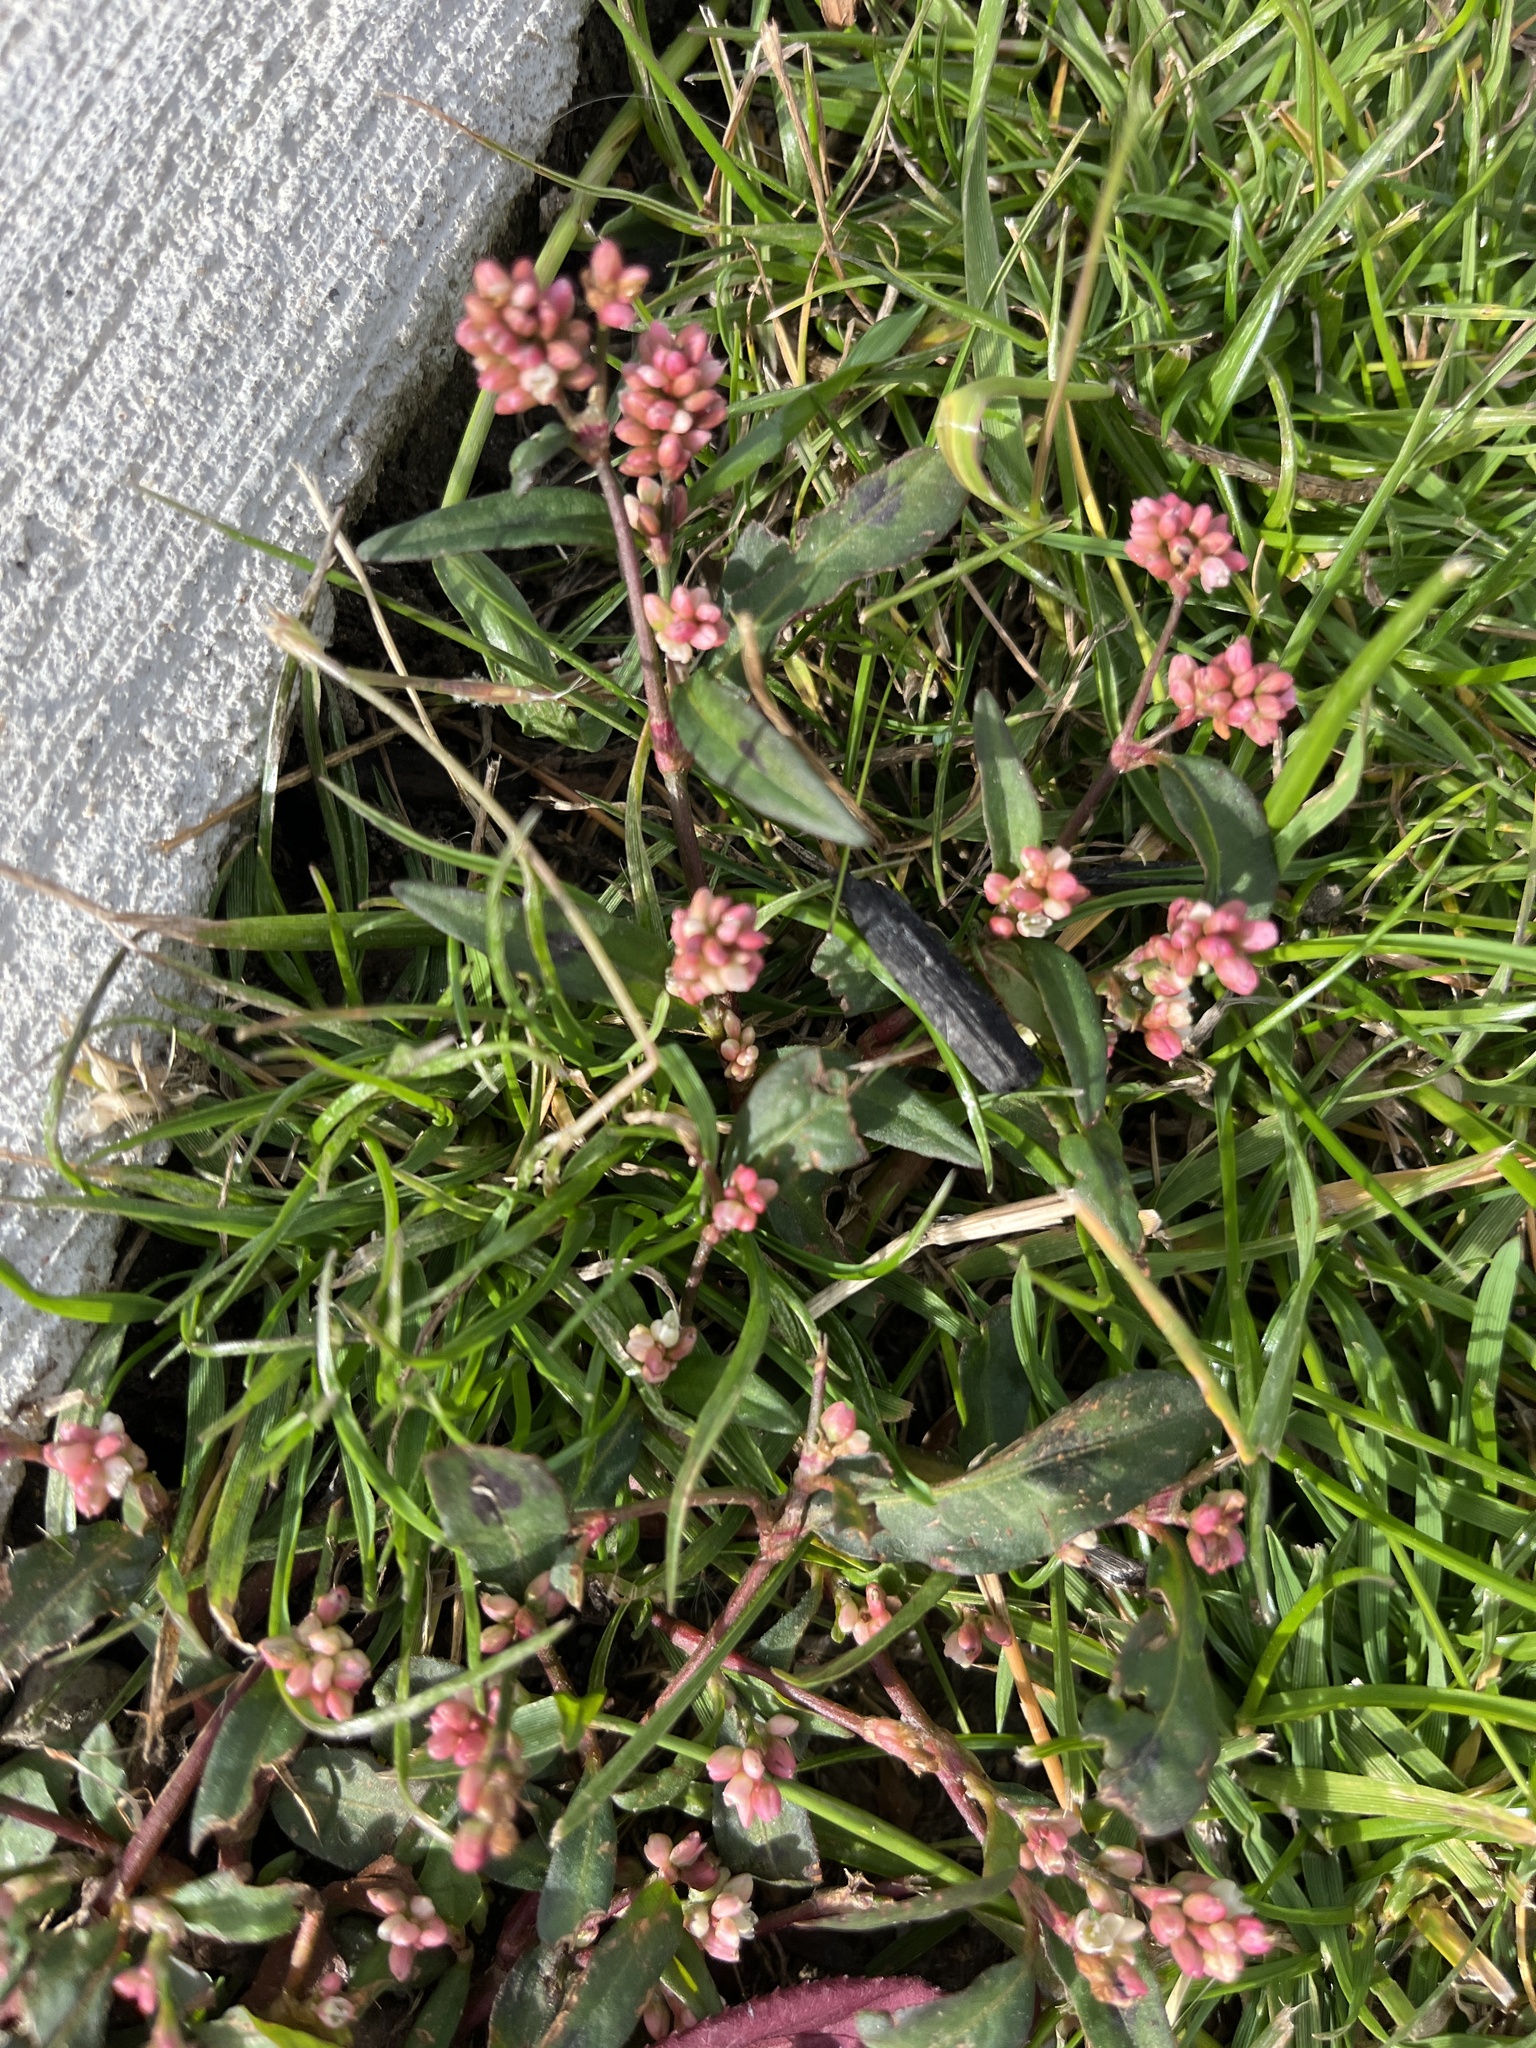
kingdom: Plantae
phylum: Tracheophyta
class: Magnoliopsida
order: Caryophyllales
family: Polygonaceae
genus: Persicaria
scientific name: Persicaria maculosa
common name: Redshank
